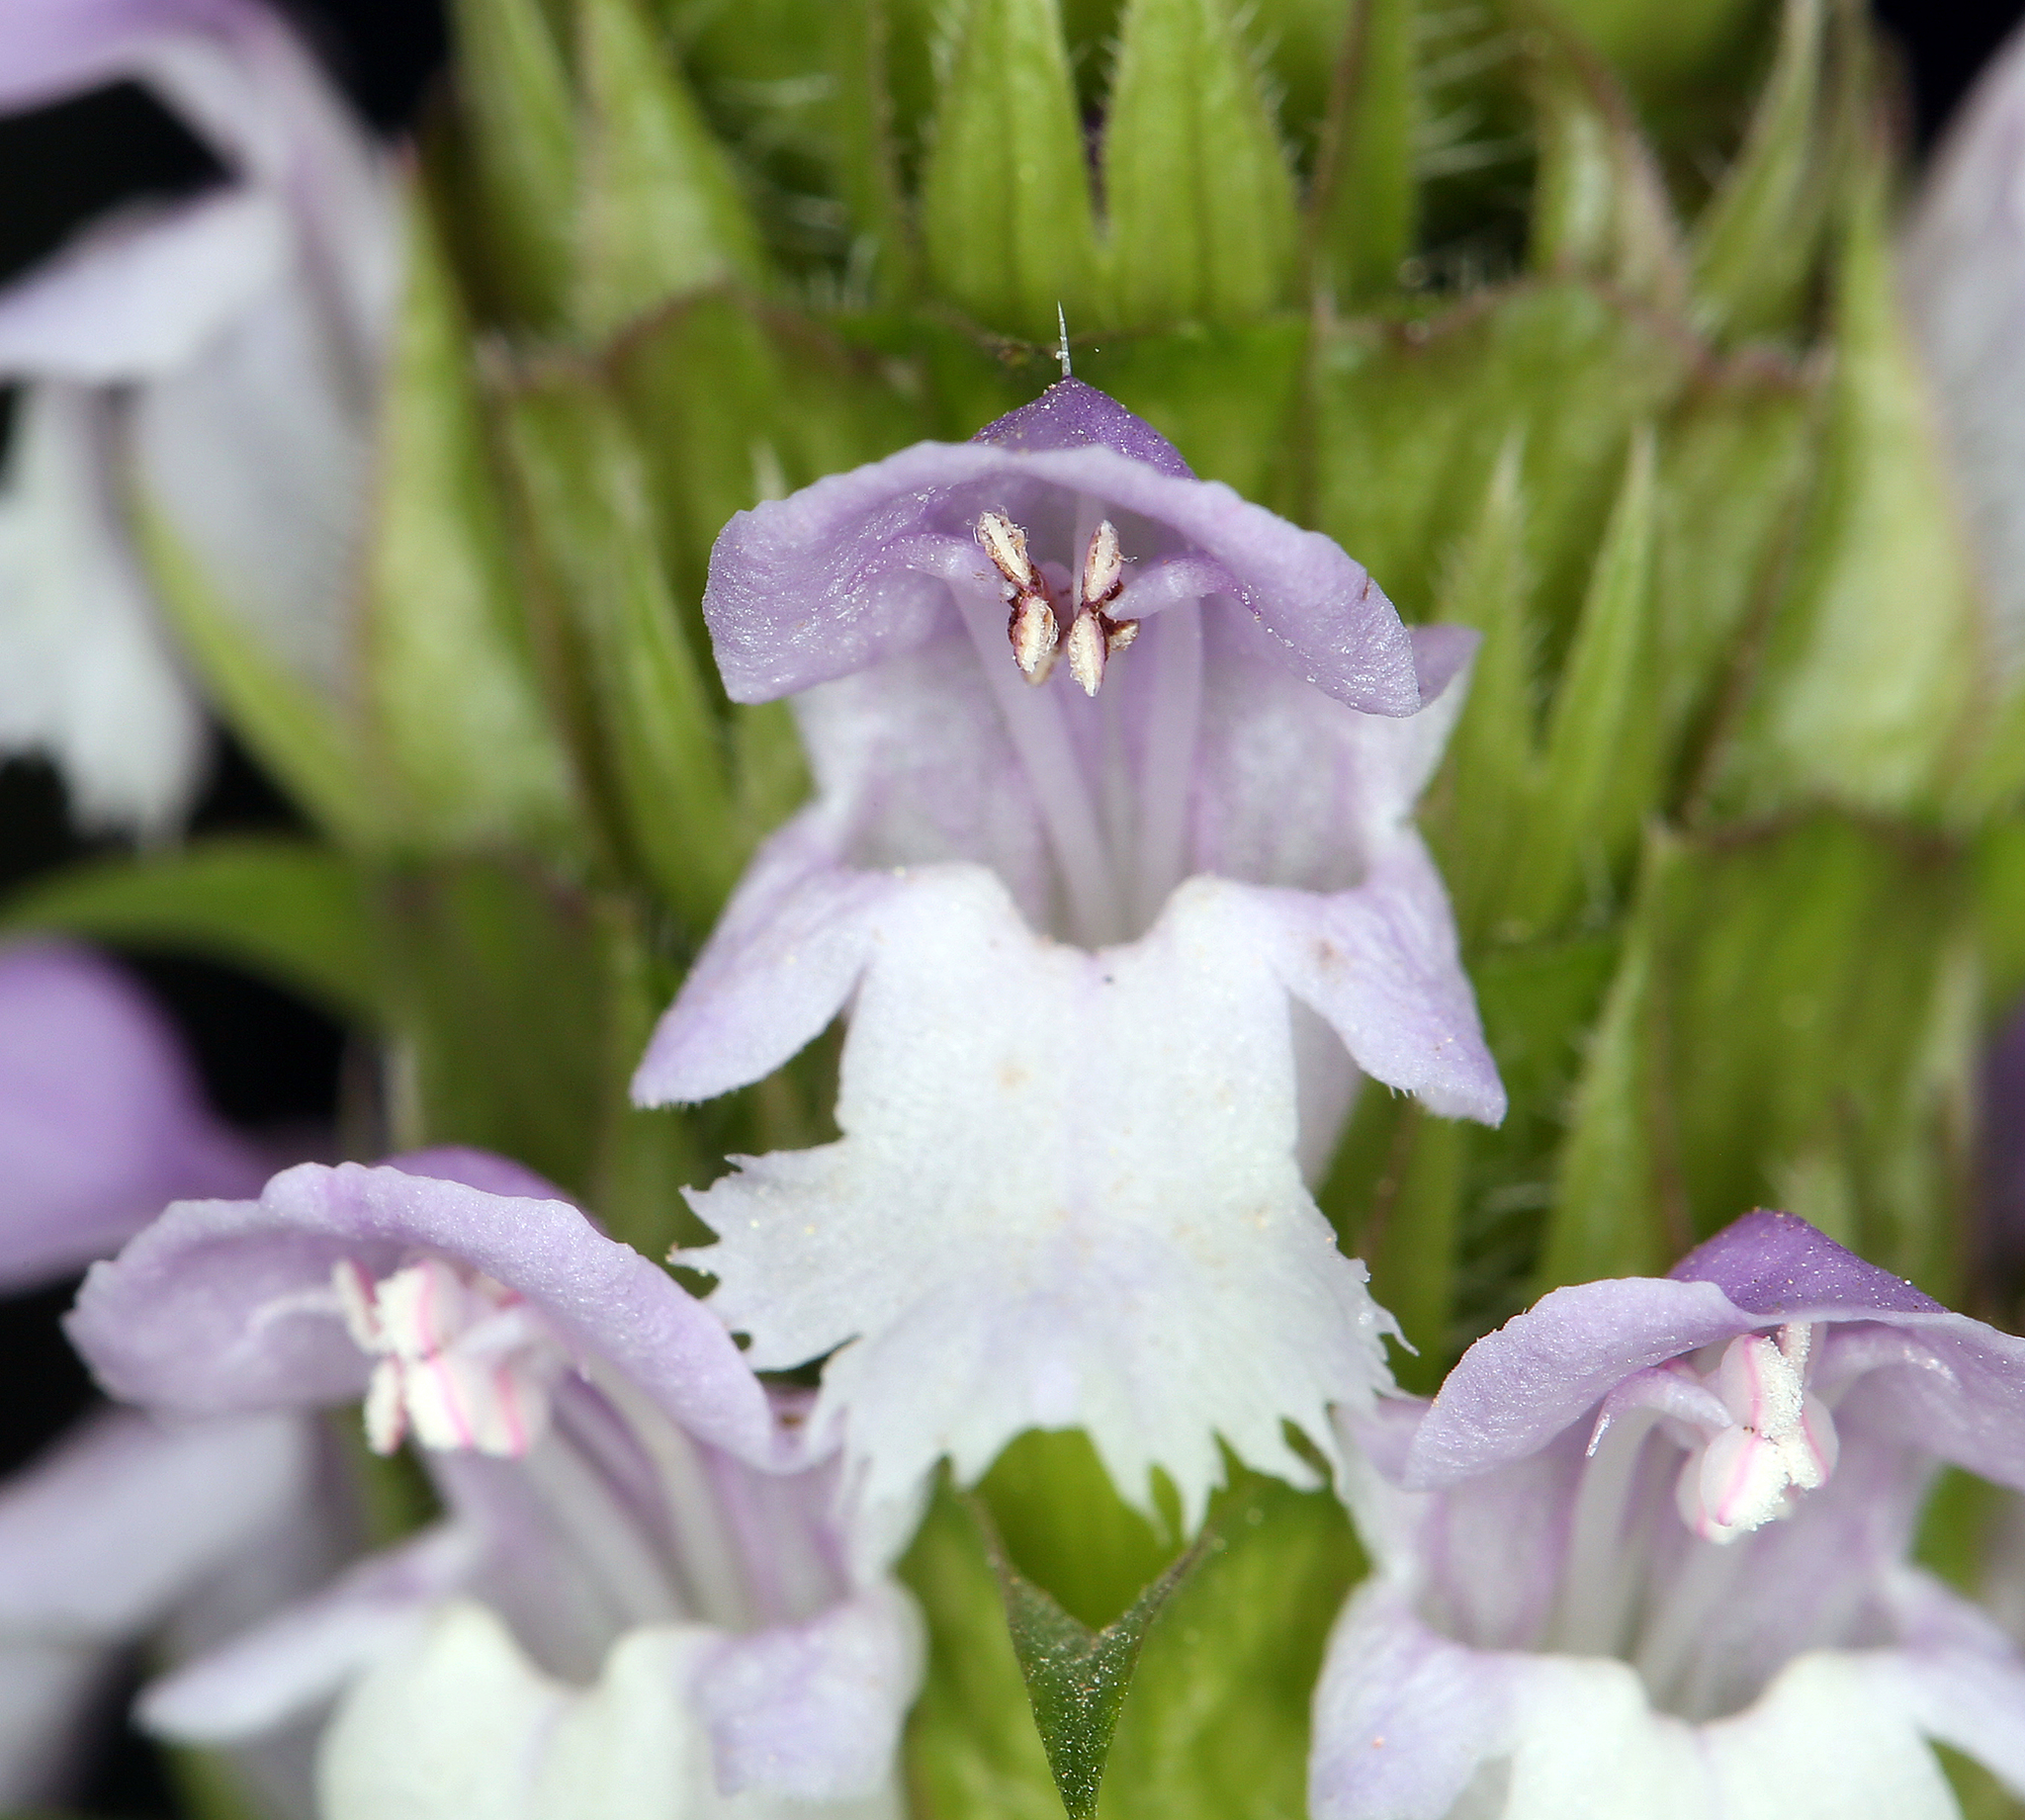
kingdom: Plantae
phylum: Tracheophyta
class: Magnoliopsida
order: Lamiales
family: Lamiaceae
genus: Prunella
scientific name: Prunella vulgaris
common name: Heal-all
